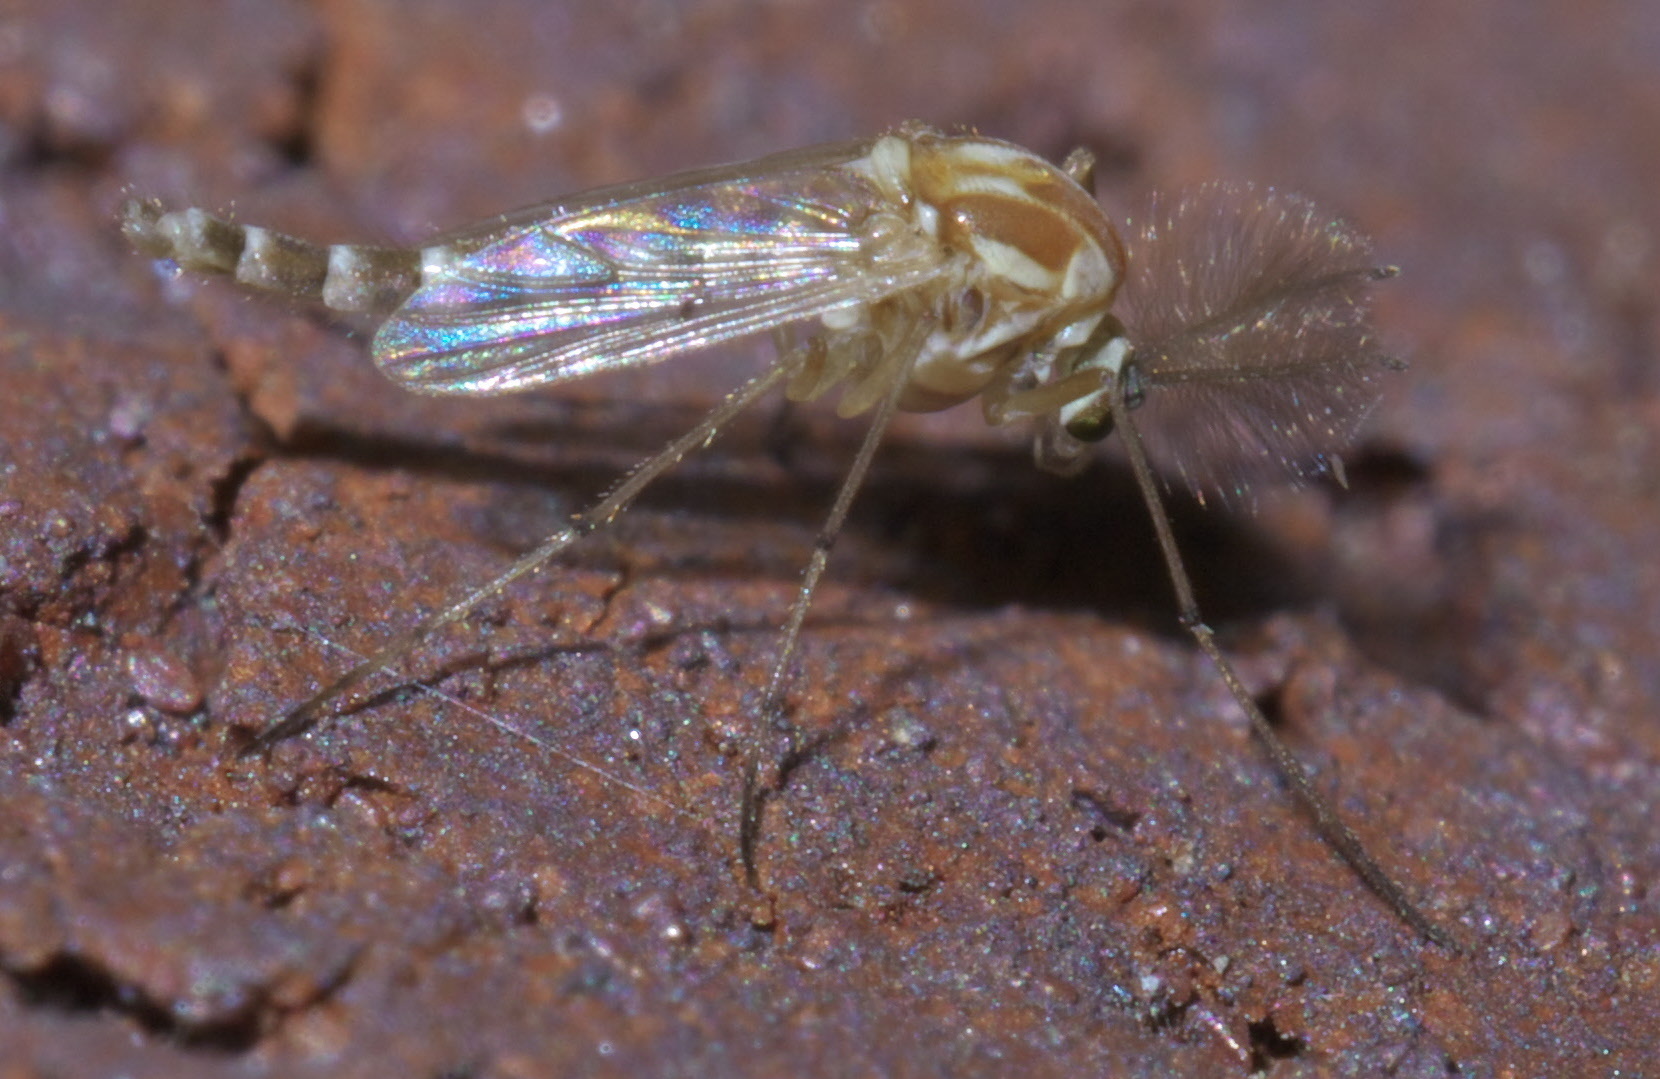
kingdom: Animalia
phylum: Arthropoda
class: Insecta
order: Diptera
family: Chironomidae
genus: Procladius
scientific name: Procladius bellus
